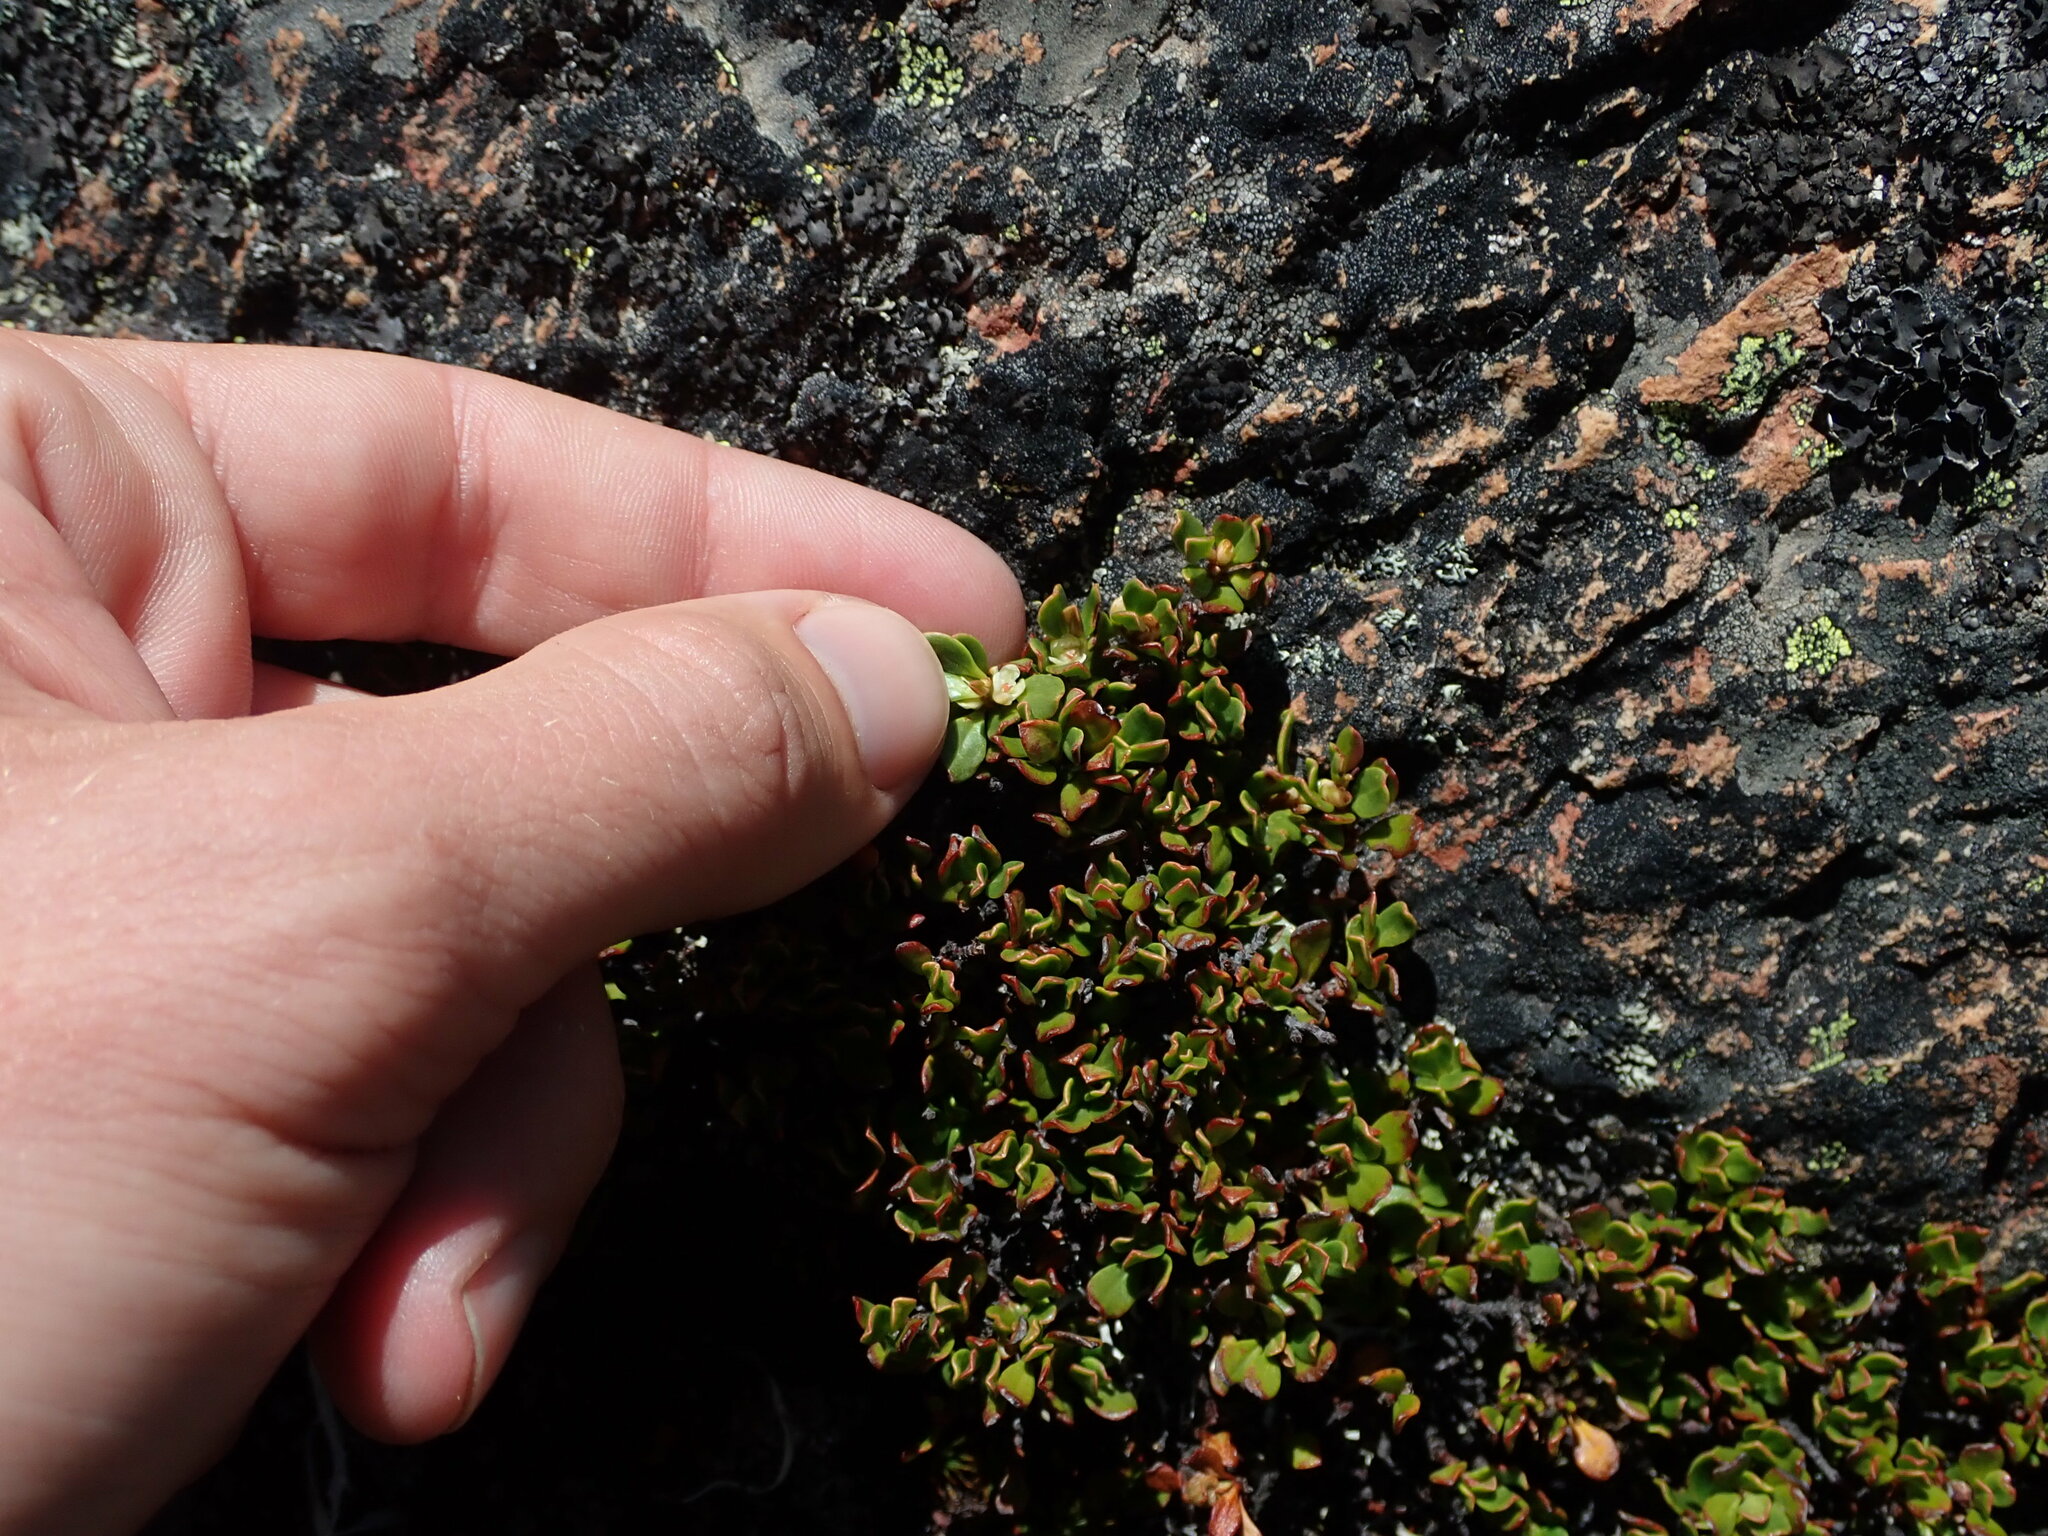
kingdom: Plantae
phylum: Tracheophyta
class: Magnoliopsida
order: Caryophyllales
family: Polygonaceae
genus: Muehlenbeckia
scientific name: Muehlenbeckia volcanica
